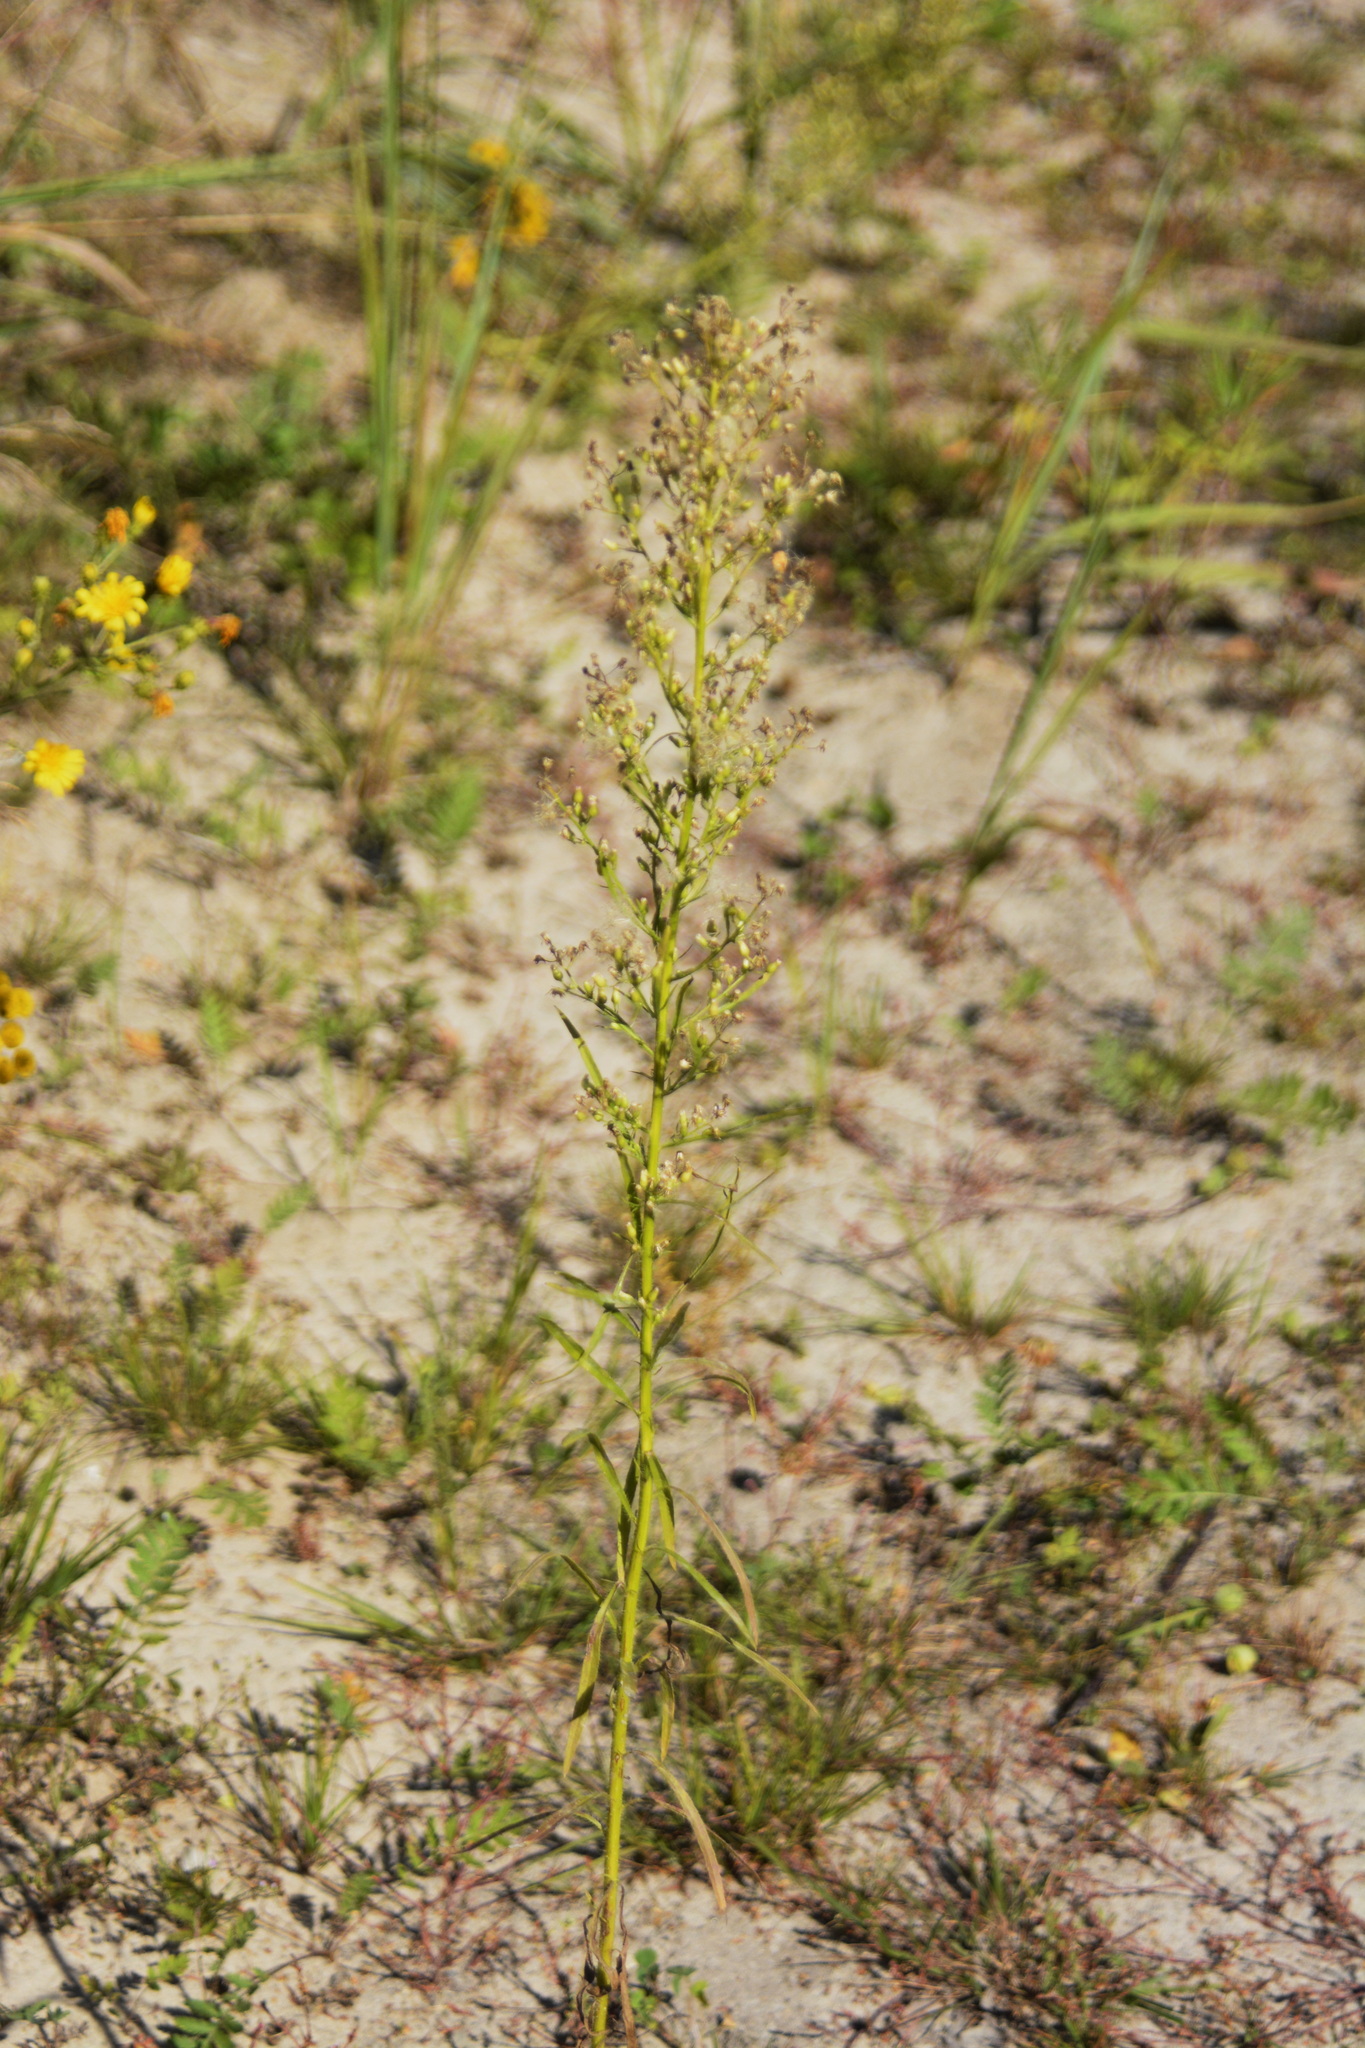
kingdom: Plantae
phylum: Tracheophyta
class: Magnoliopsida
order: Asterales
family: Asteraceae
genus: Erigeron
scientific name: Erigeron canadensis
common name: Canadian fleabane
